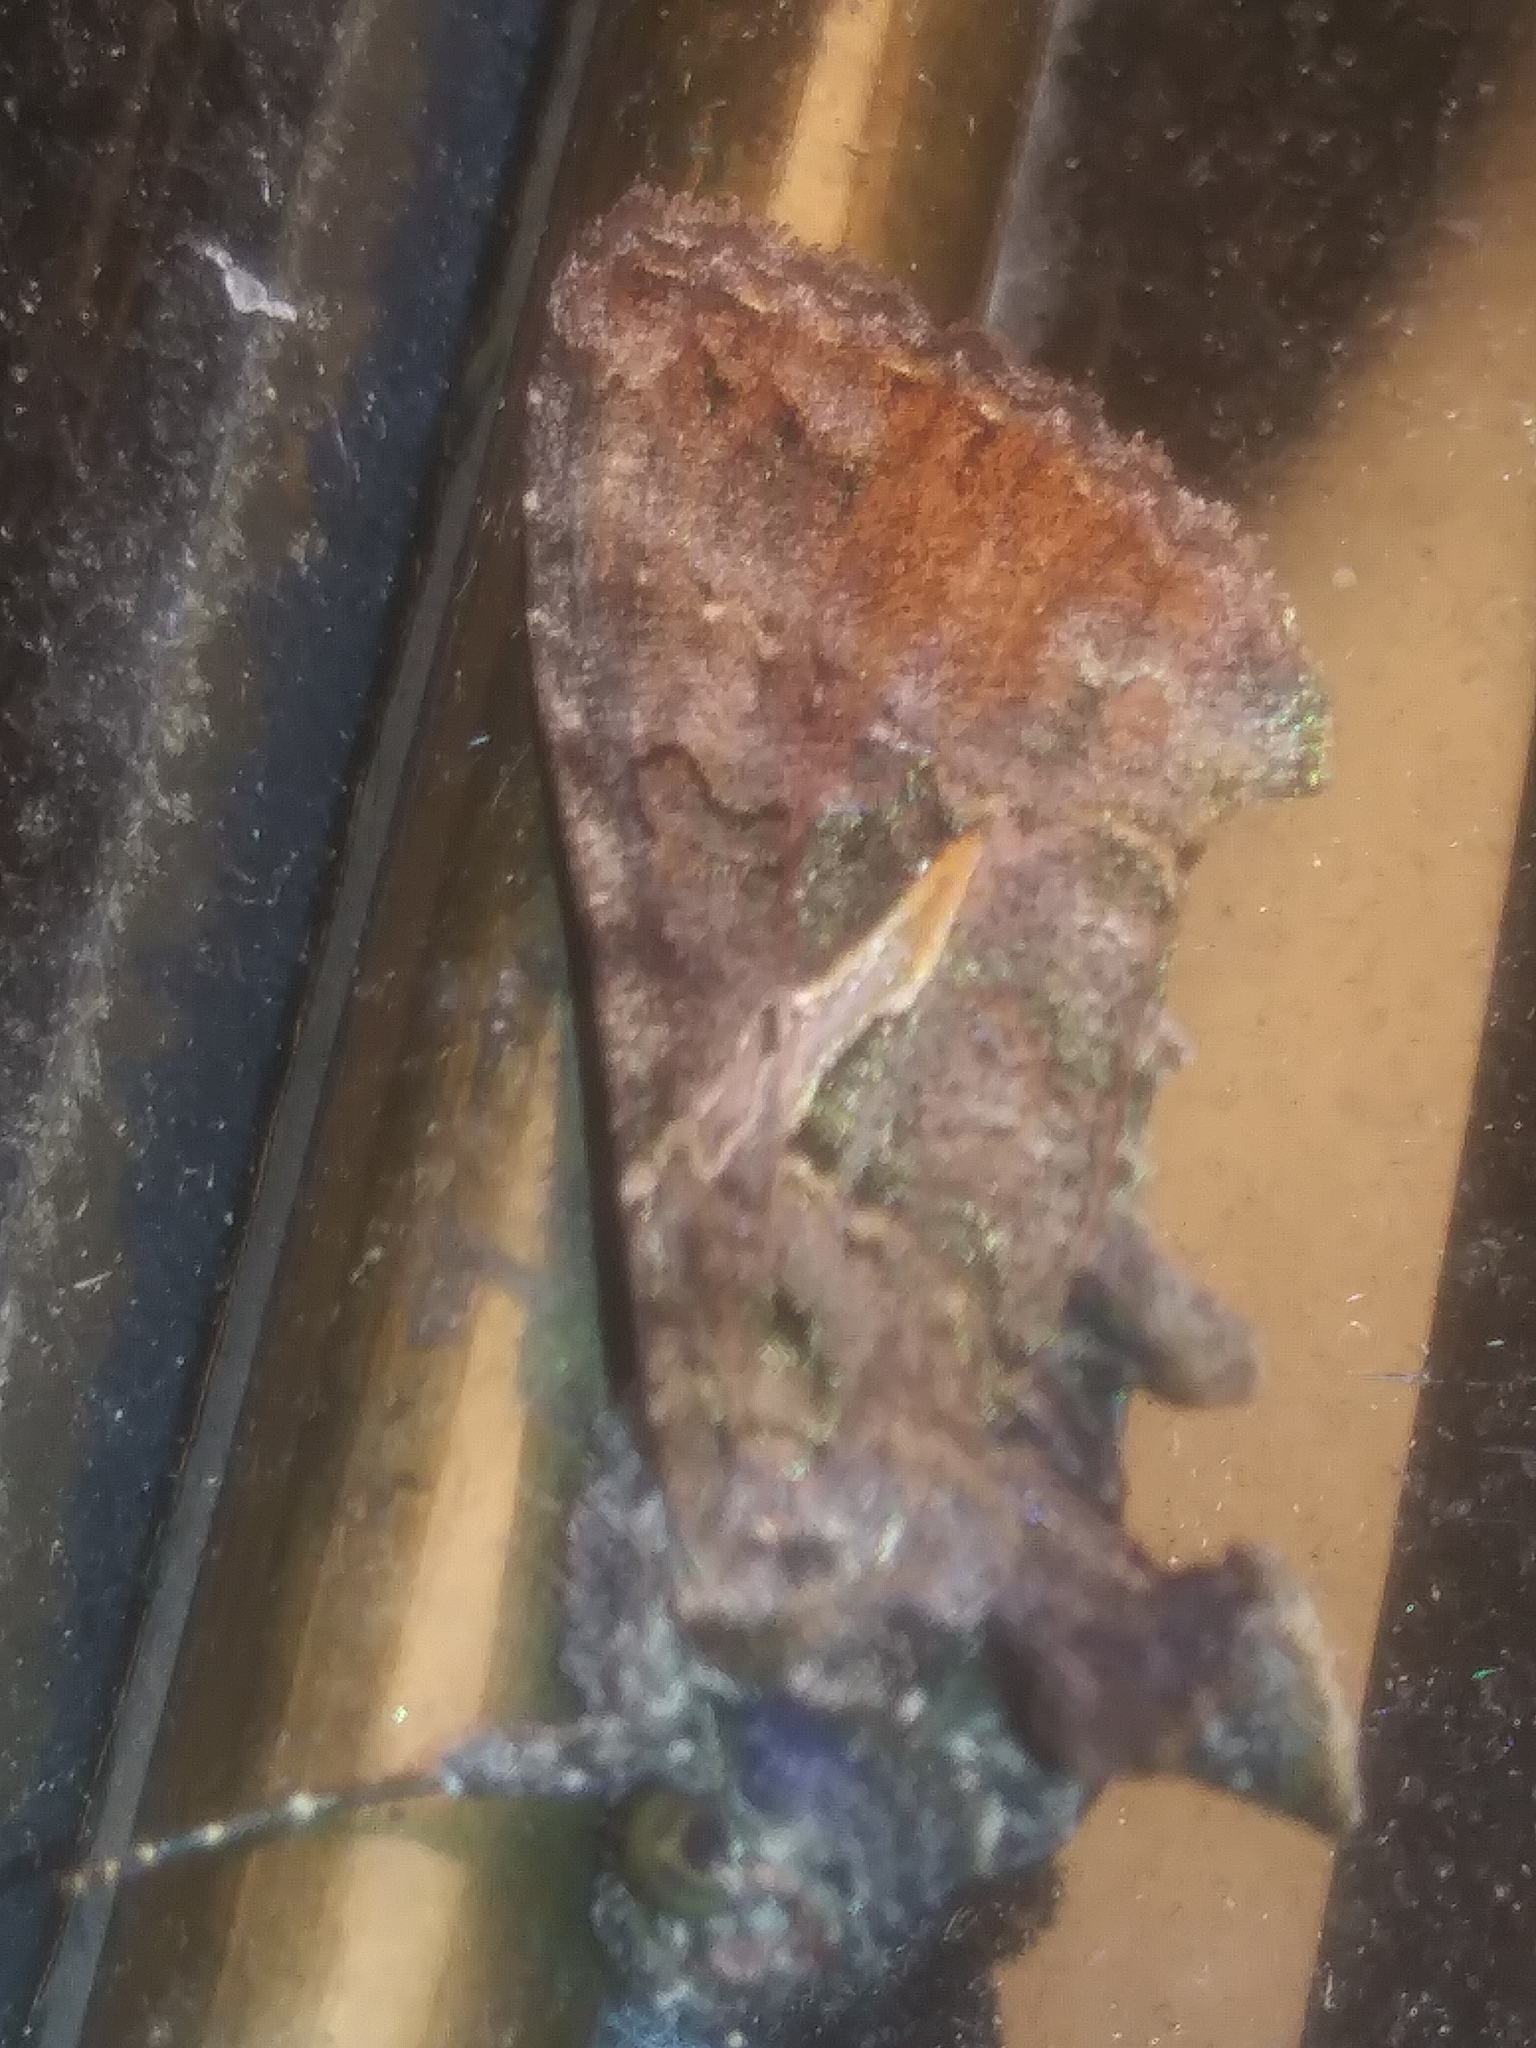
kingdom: Animalia
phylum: Arthropoda
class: Insecta
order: Lepidoptera
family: Noctuidae
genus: Ctenoplusia
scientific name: Ctenoplusia oxygramma
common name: Sharp-stigma looper moth
